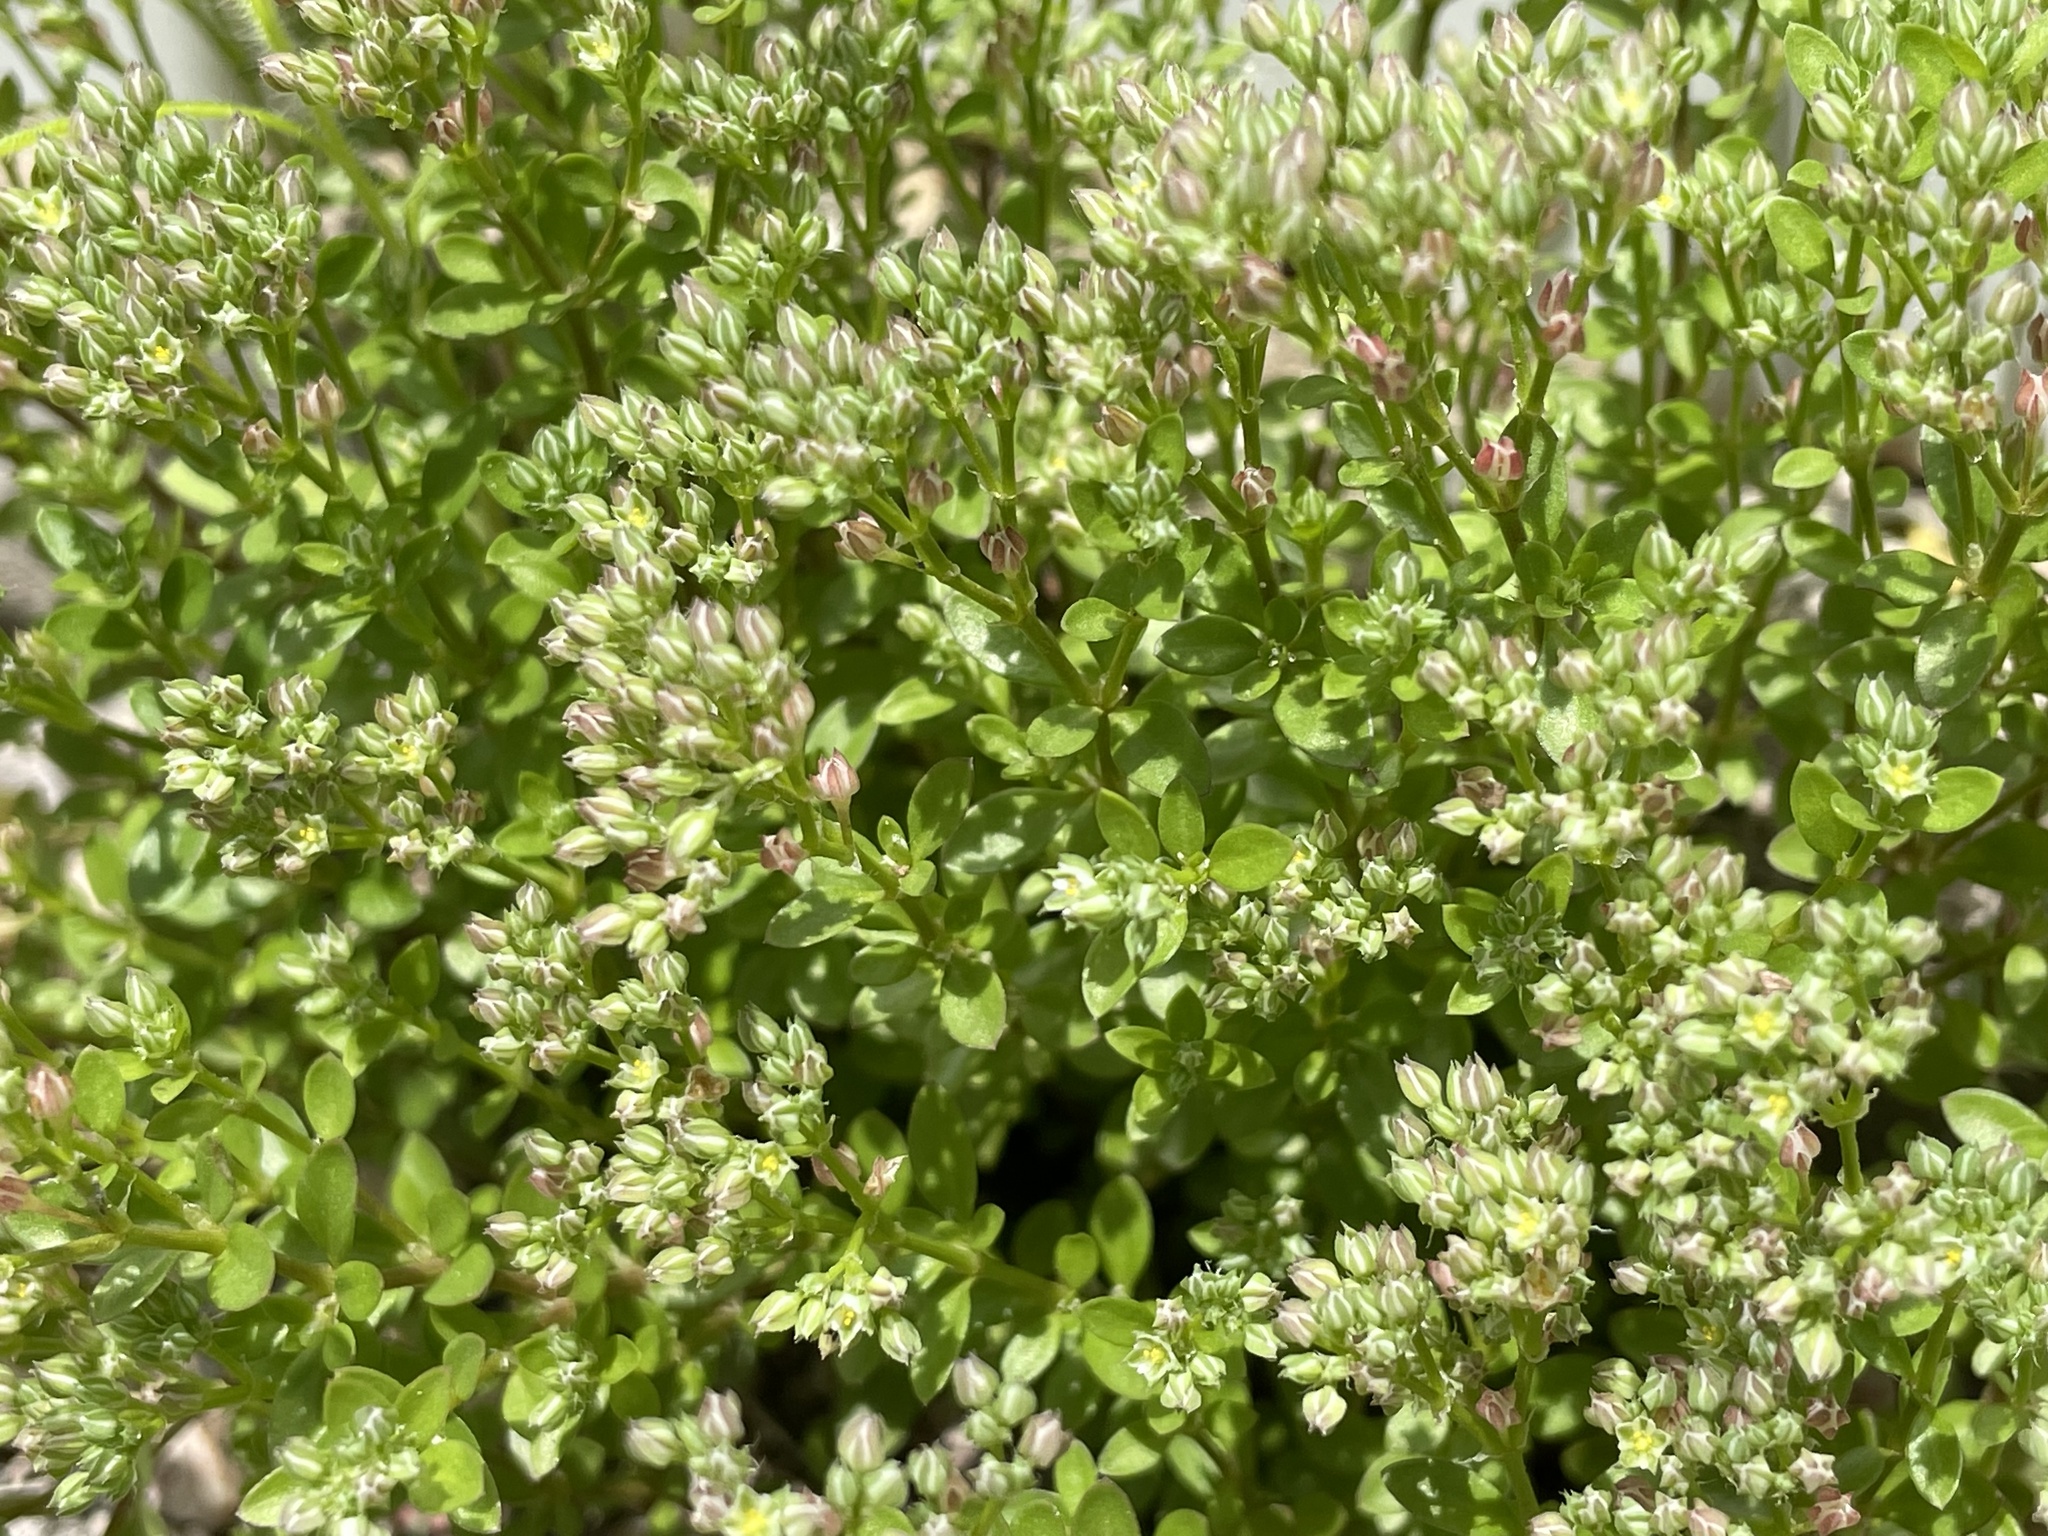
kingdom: Plantae
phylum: Tracheophyta
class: Magnoliopsida
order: Caryophyllales
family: Caryophyllaceae
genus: Polycarpon
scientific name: Polycarpon tetraphyllum
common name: Four-leaved all-seed
